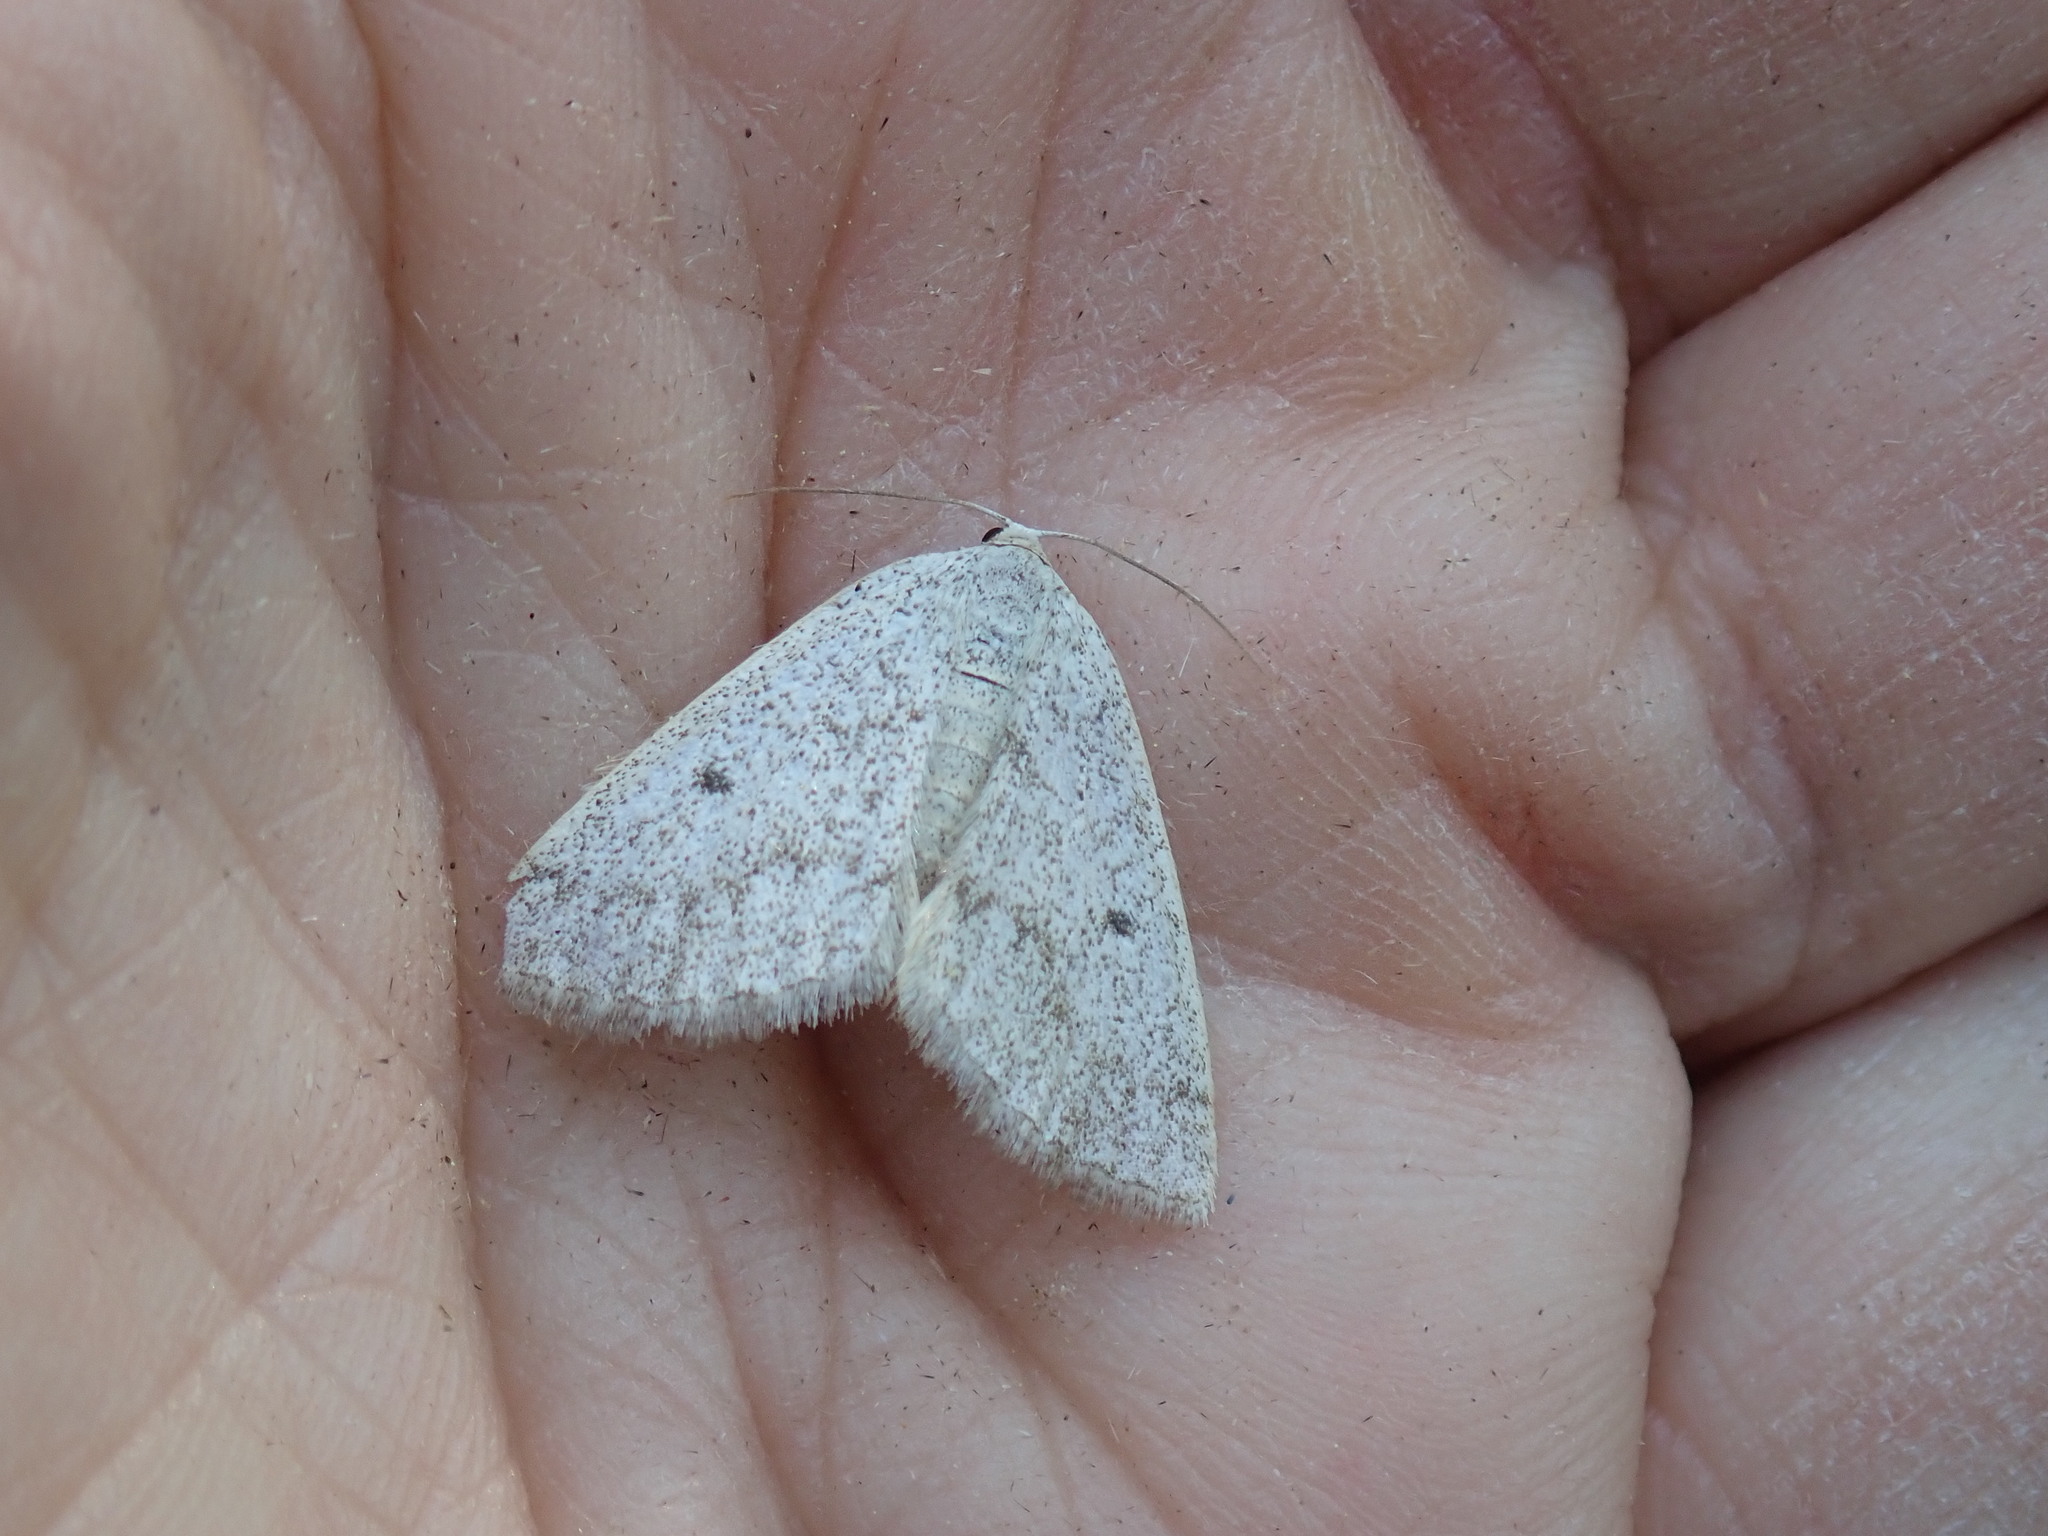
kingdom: Animalia
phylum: Arthropoda
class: Insecta
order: Lepidoptera
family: Geometridae
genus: Lomographa
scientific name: Lomographa glomeraria
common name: Gray spring moth
